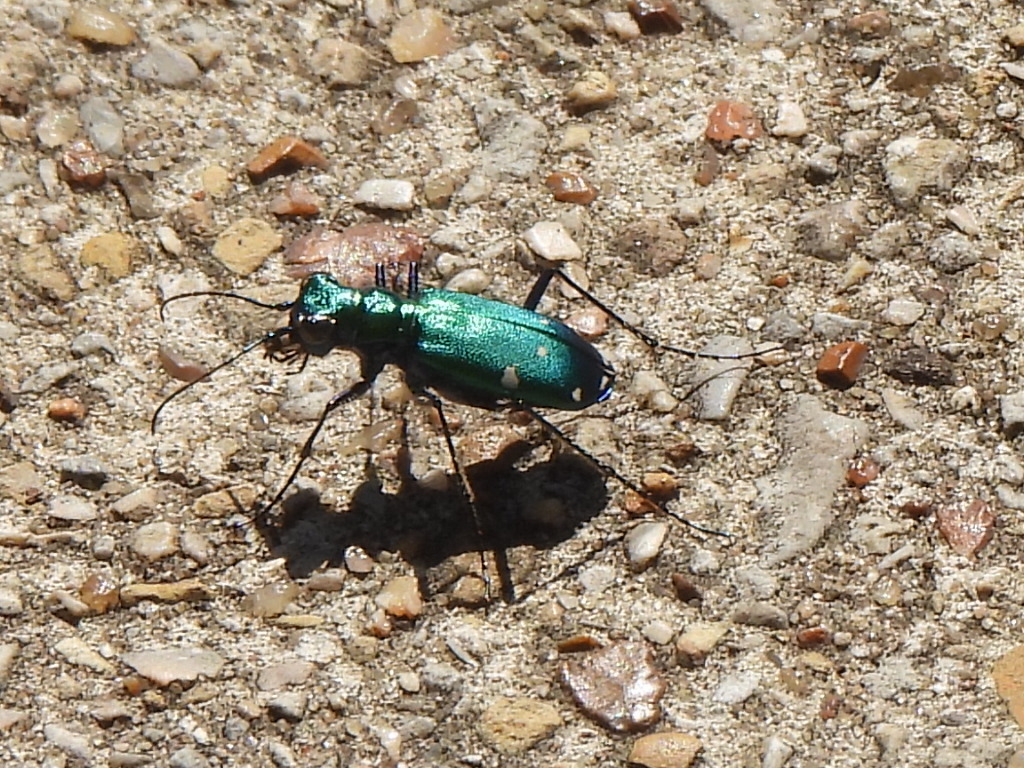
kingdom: Animalia
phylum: Arthropoda
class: Insecta
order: Coleoptera
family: Carabidae
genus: Cicindela
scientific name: Cicindela sexguttata
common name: Six-spotted tiger beetle
